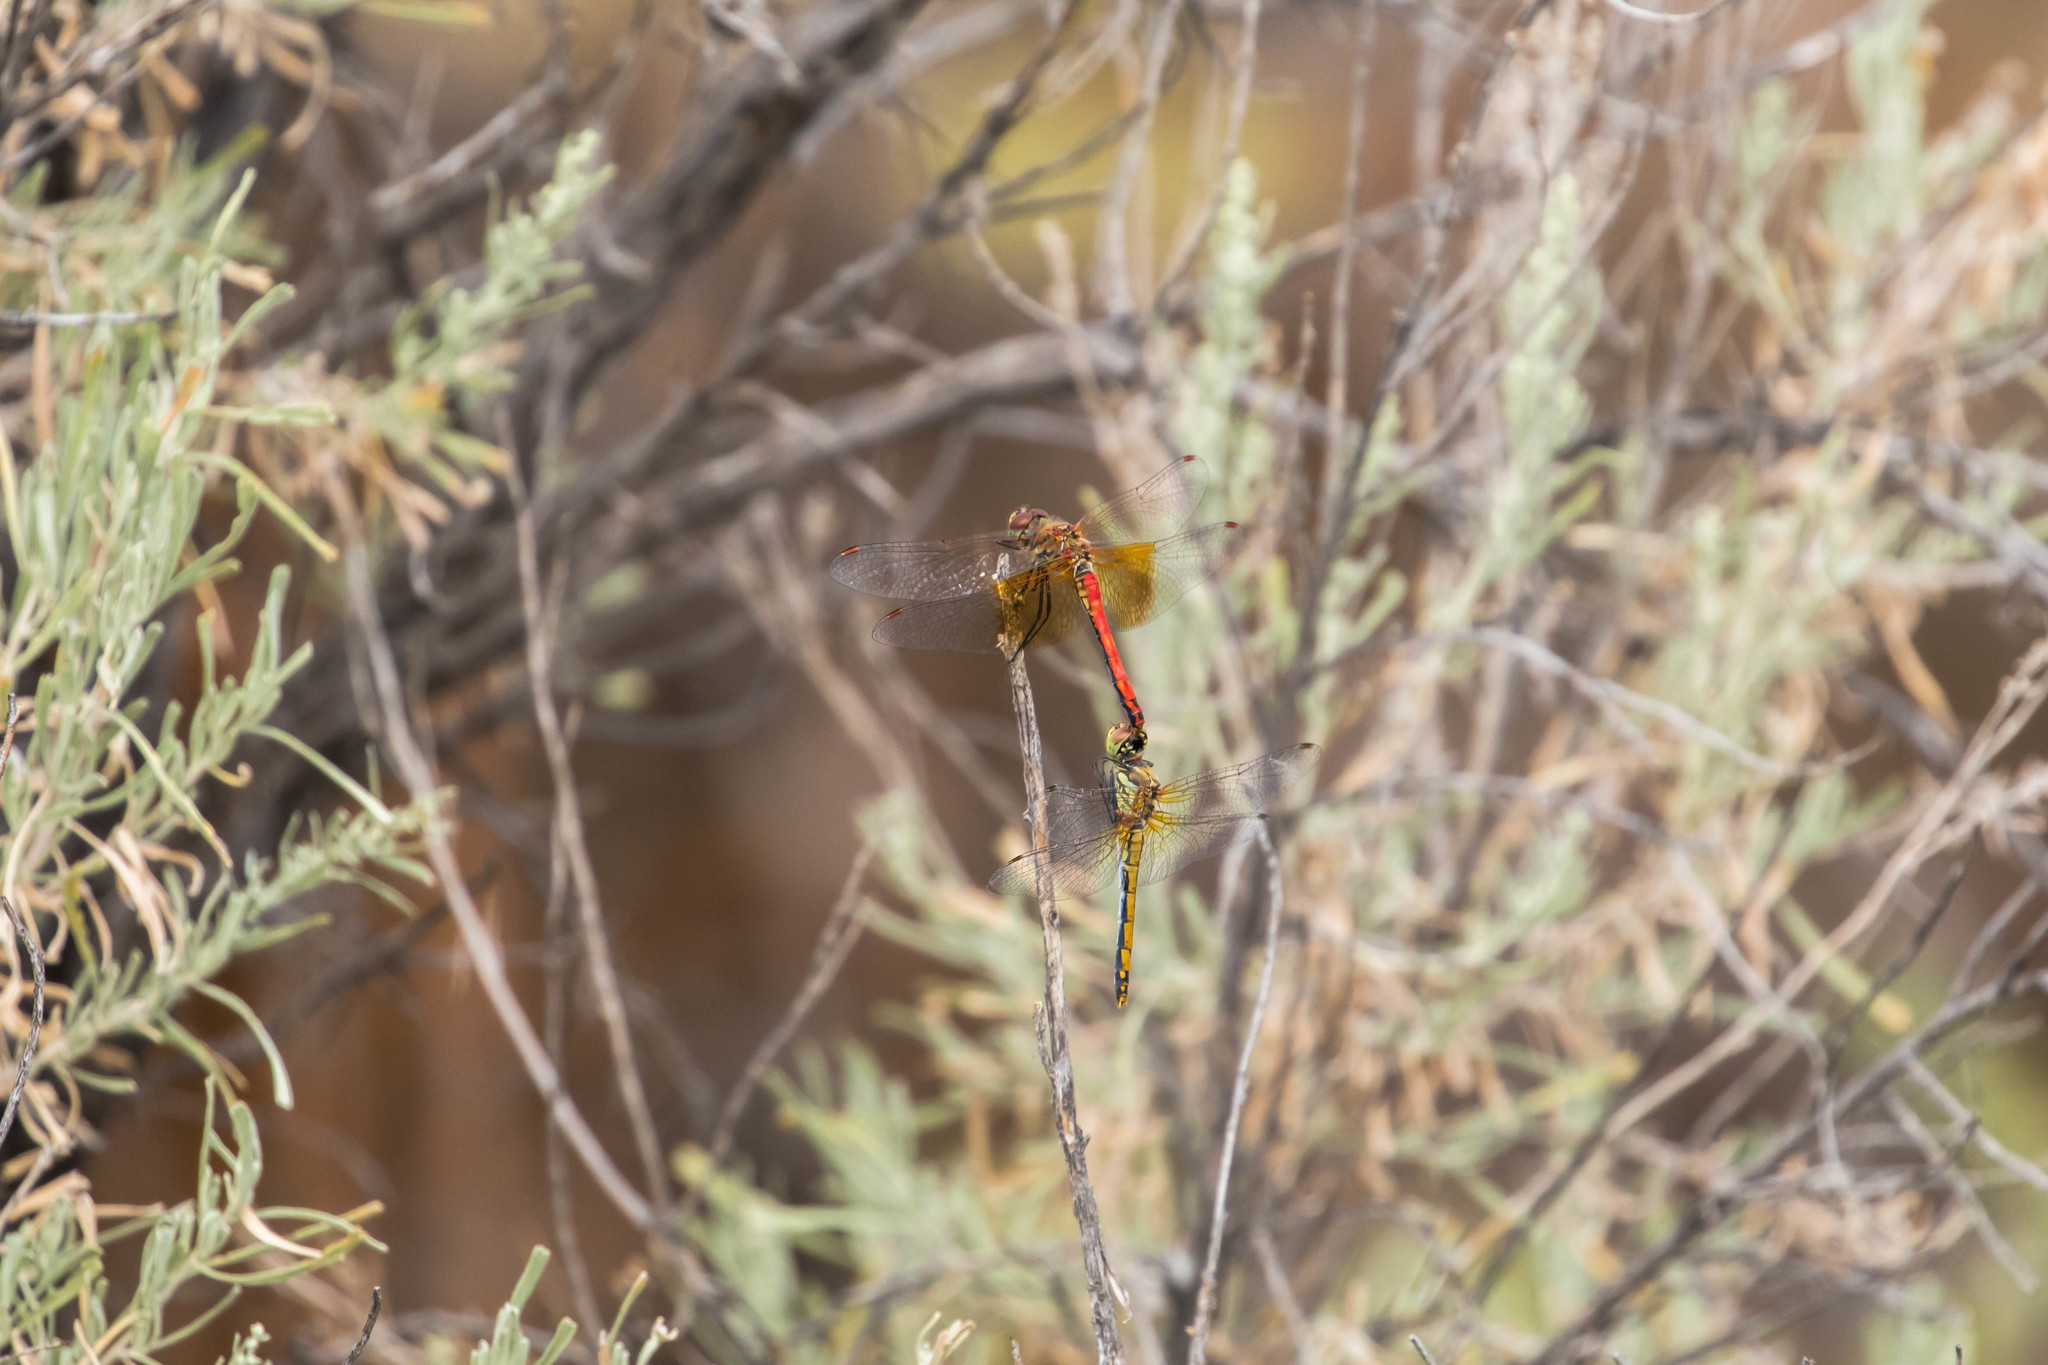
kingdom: Animalia
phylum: Arthropoda
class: Insecta
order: Odonata
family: Libellulidae
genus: Sympetrum
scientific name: Sympetrum semicinctum
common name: Band-winged meadowhawk
